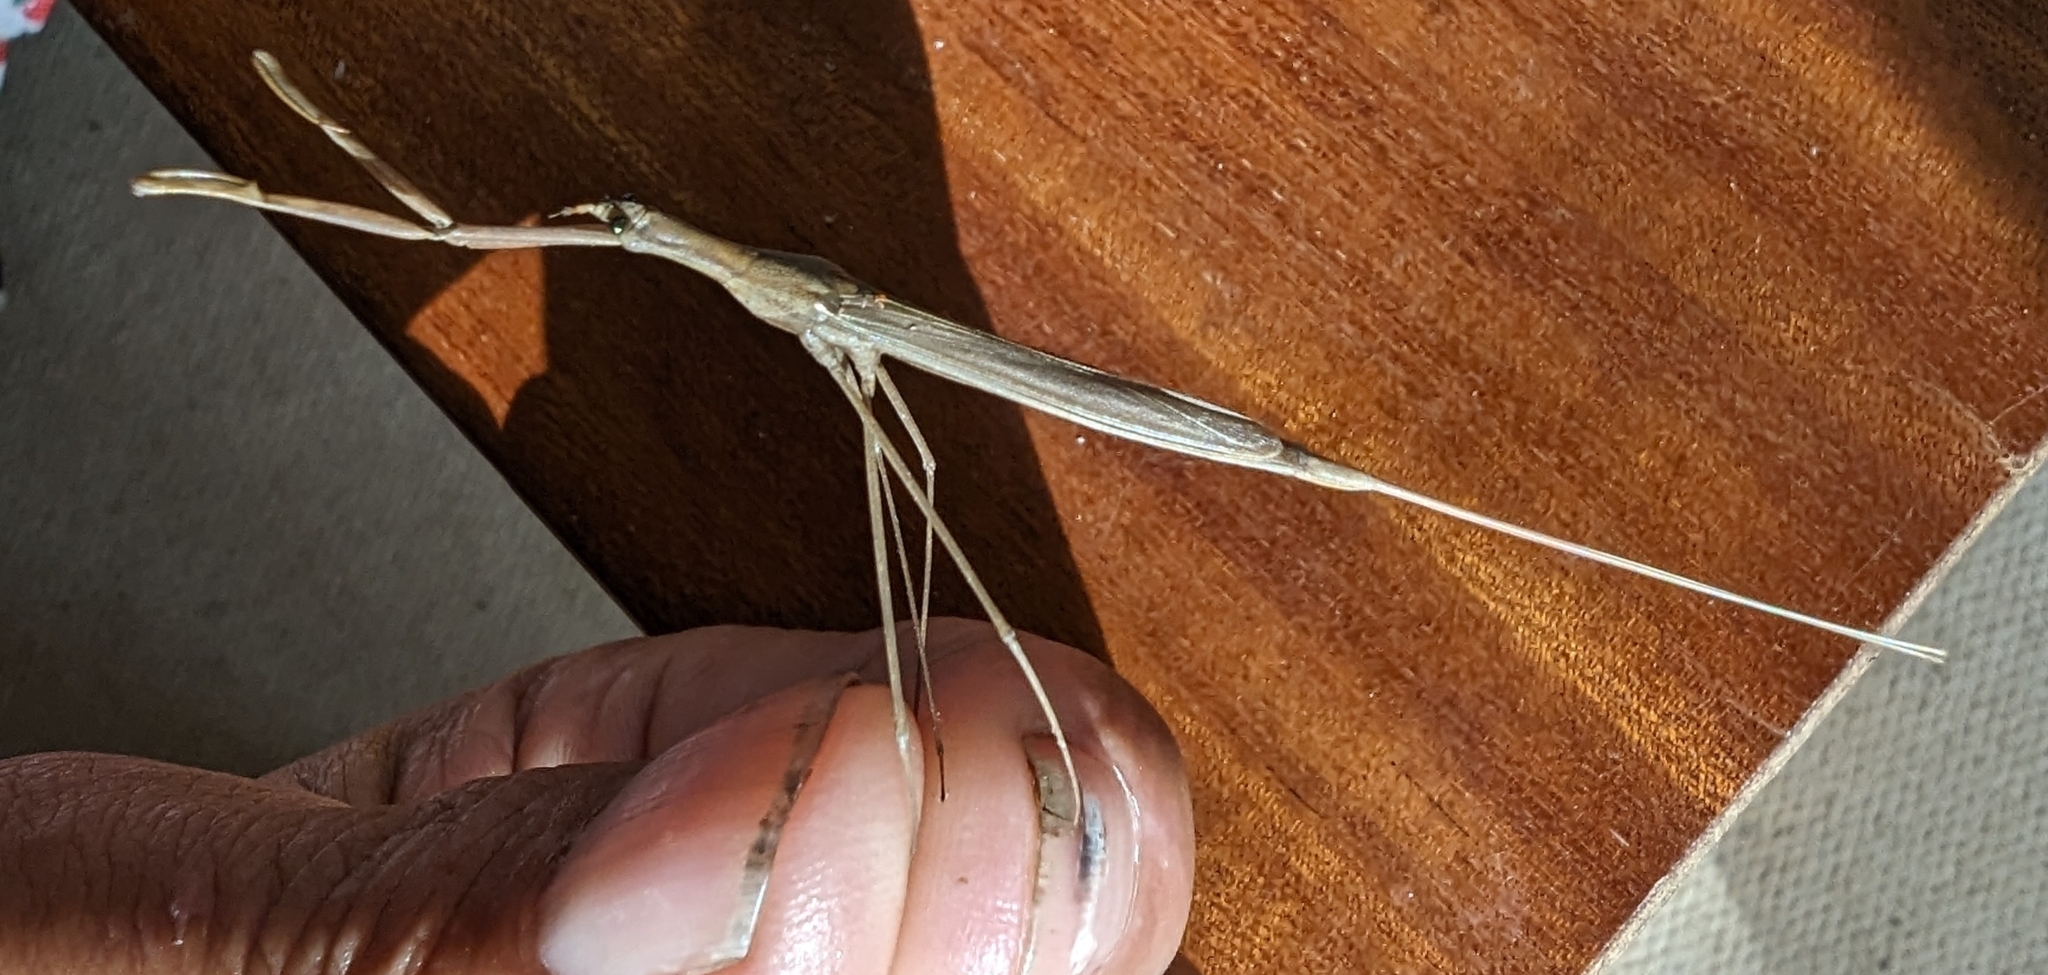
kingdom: Animalia
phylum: Arthropoda
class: Insecta
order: Hemiptera
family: Nepidae
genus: Ranatra
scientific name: Ranatra linearis
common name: Water stick insect
